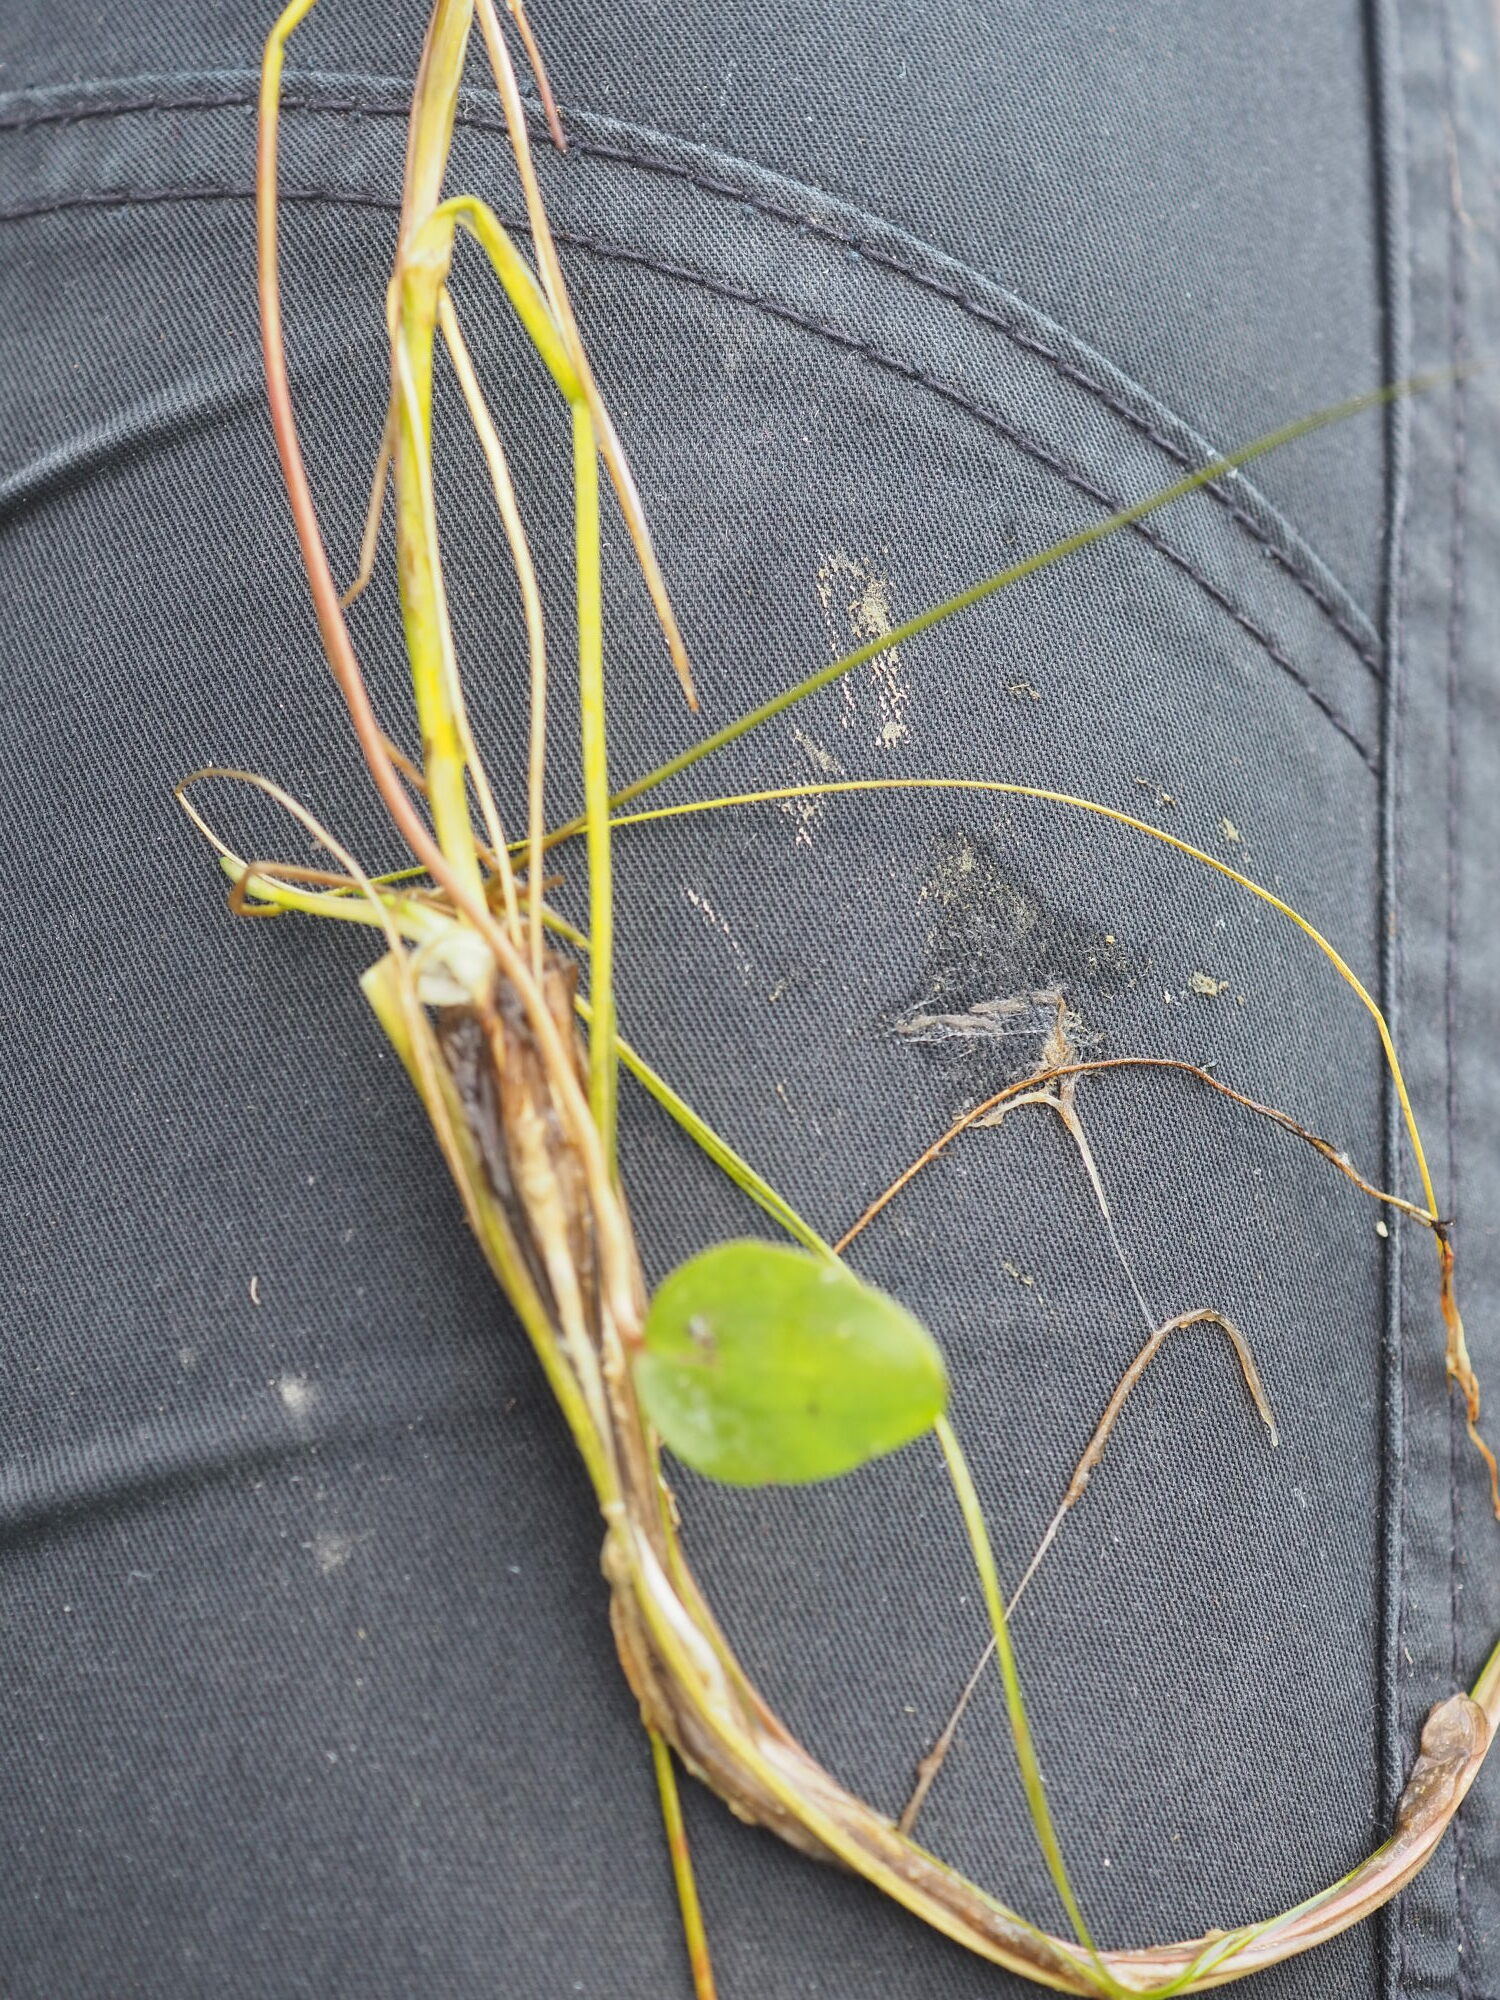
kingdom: Plantae
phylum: Tracheophyta
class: Magnoliopsida
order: Ranunculales
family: Ranunculaceae
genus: Ranunculus
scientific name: Ranunculus flammula
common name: Lesser spearwort
